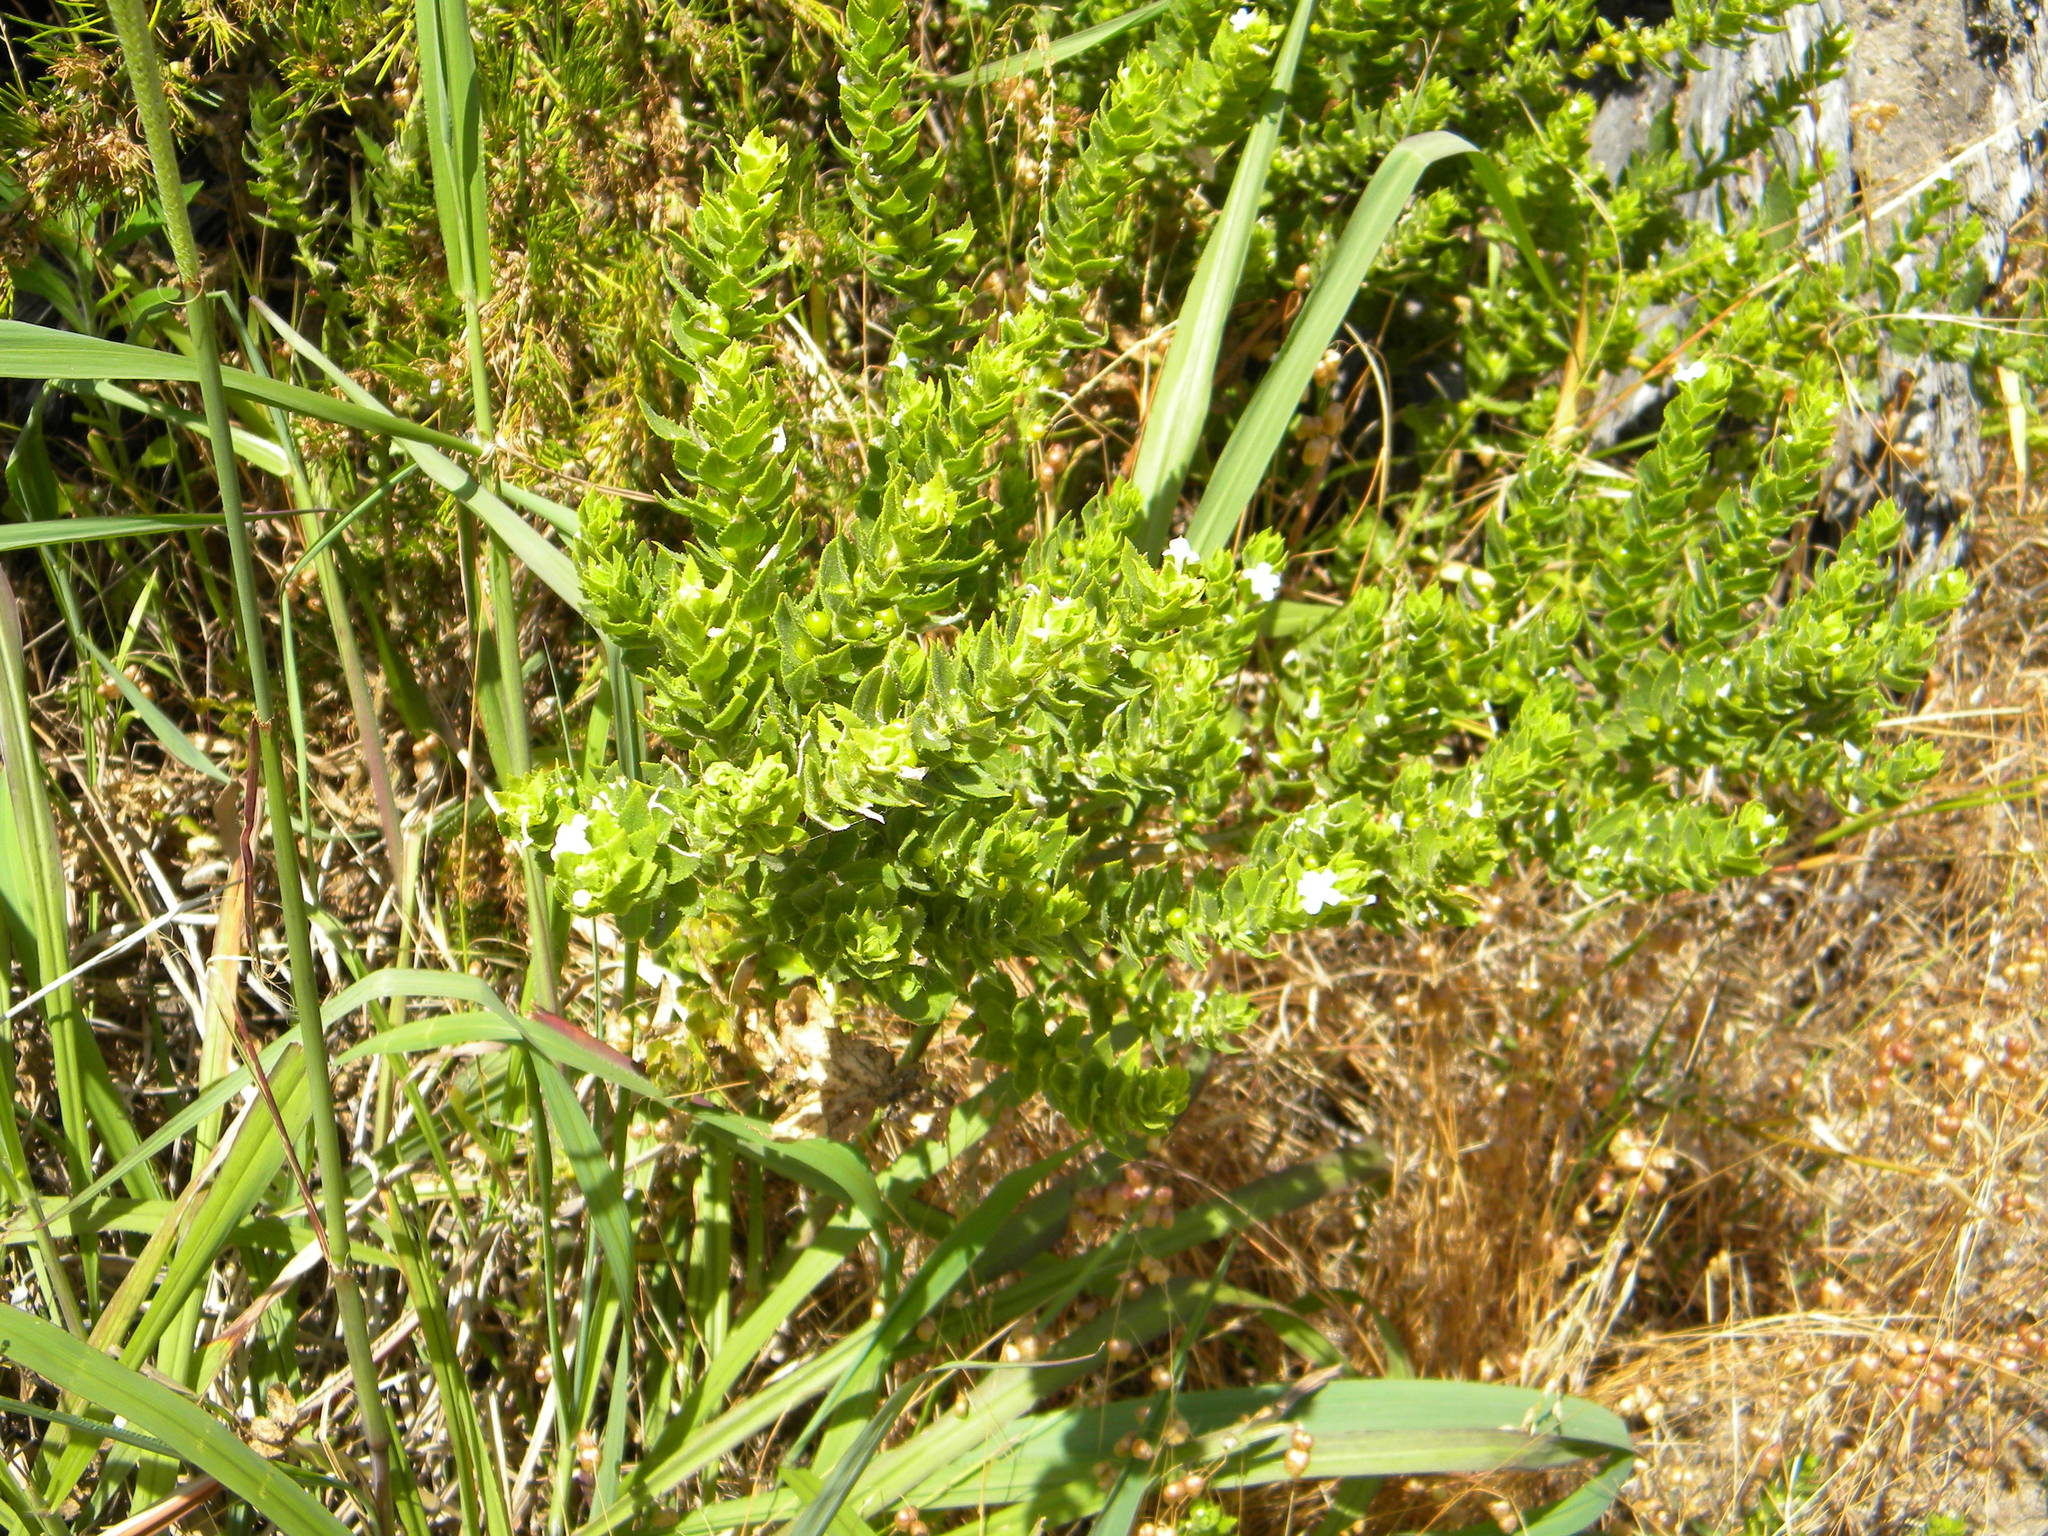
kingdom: Plantae
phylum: Tracheophyta
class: Magnoliopsida
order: Lamiales
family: Scrophulariaceae
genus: Oftia
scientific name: Oftia africana
